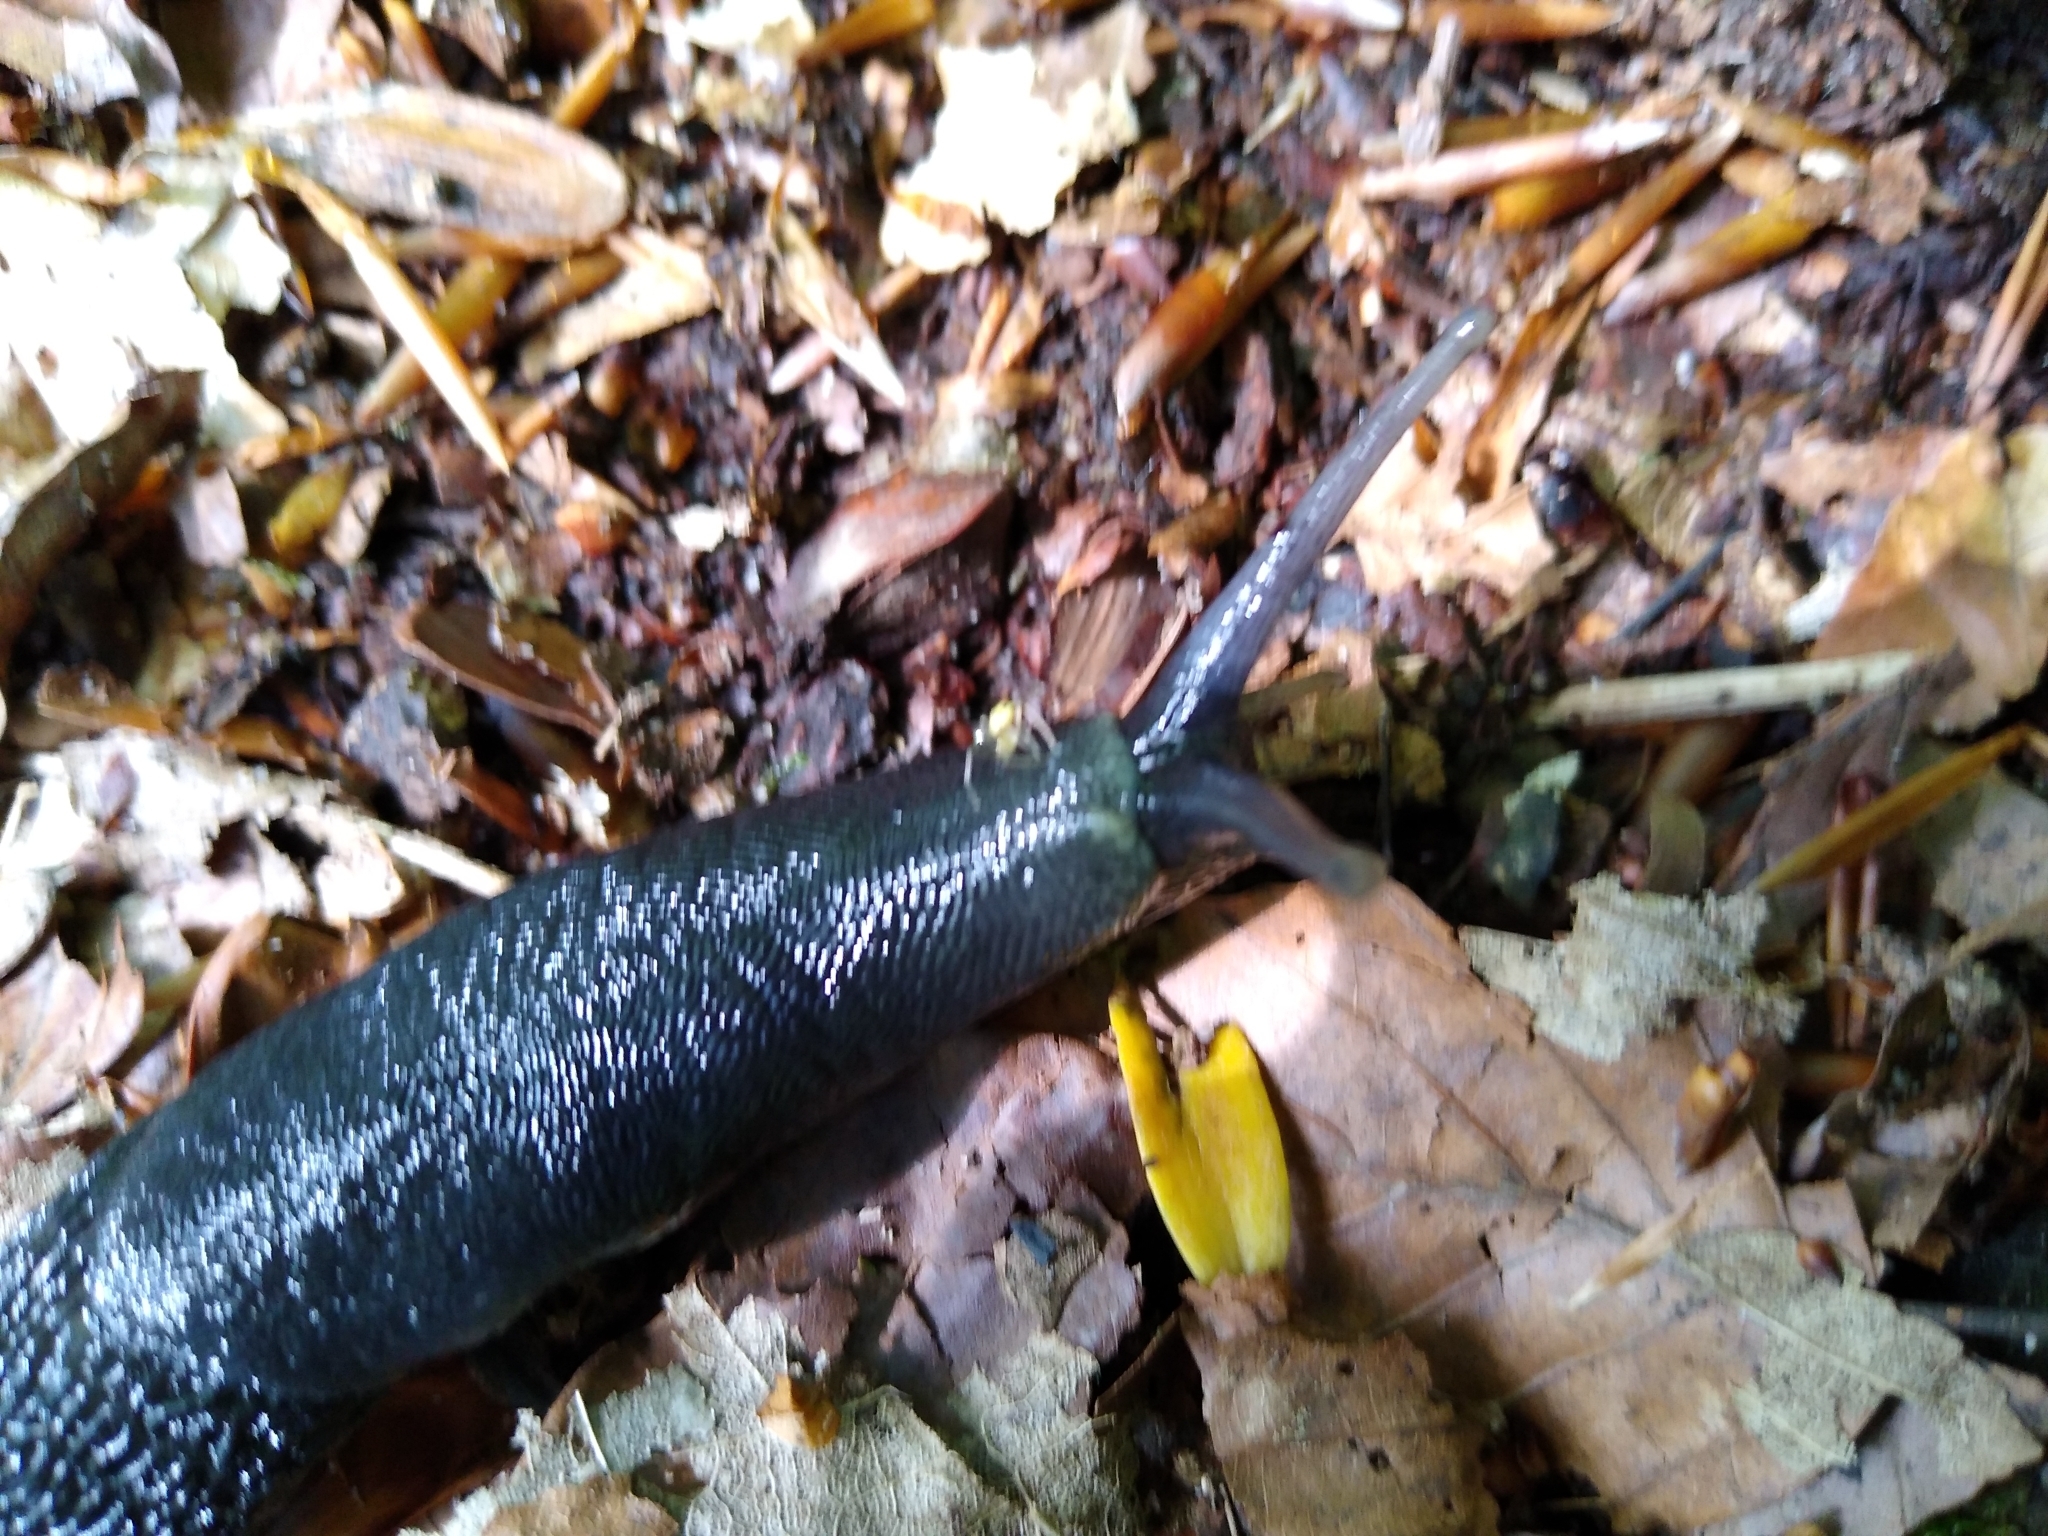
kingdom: Animalia
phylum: Mollusca
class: Gastropoda
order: Stylommatophora
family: Limacidae
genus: Limax
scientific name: Limax cinereoniger
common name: Ash-black slug
